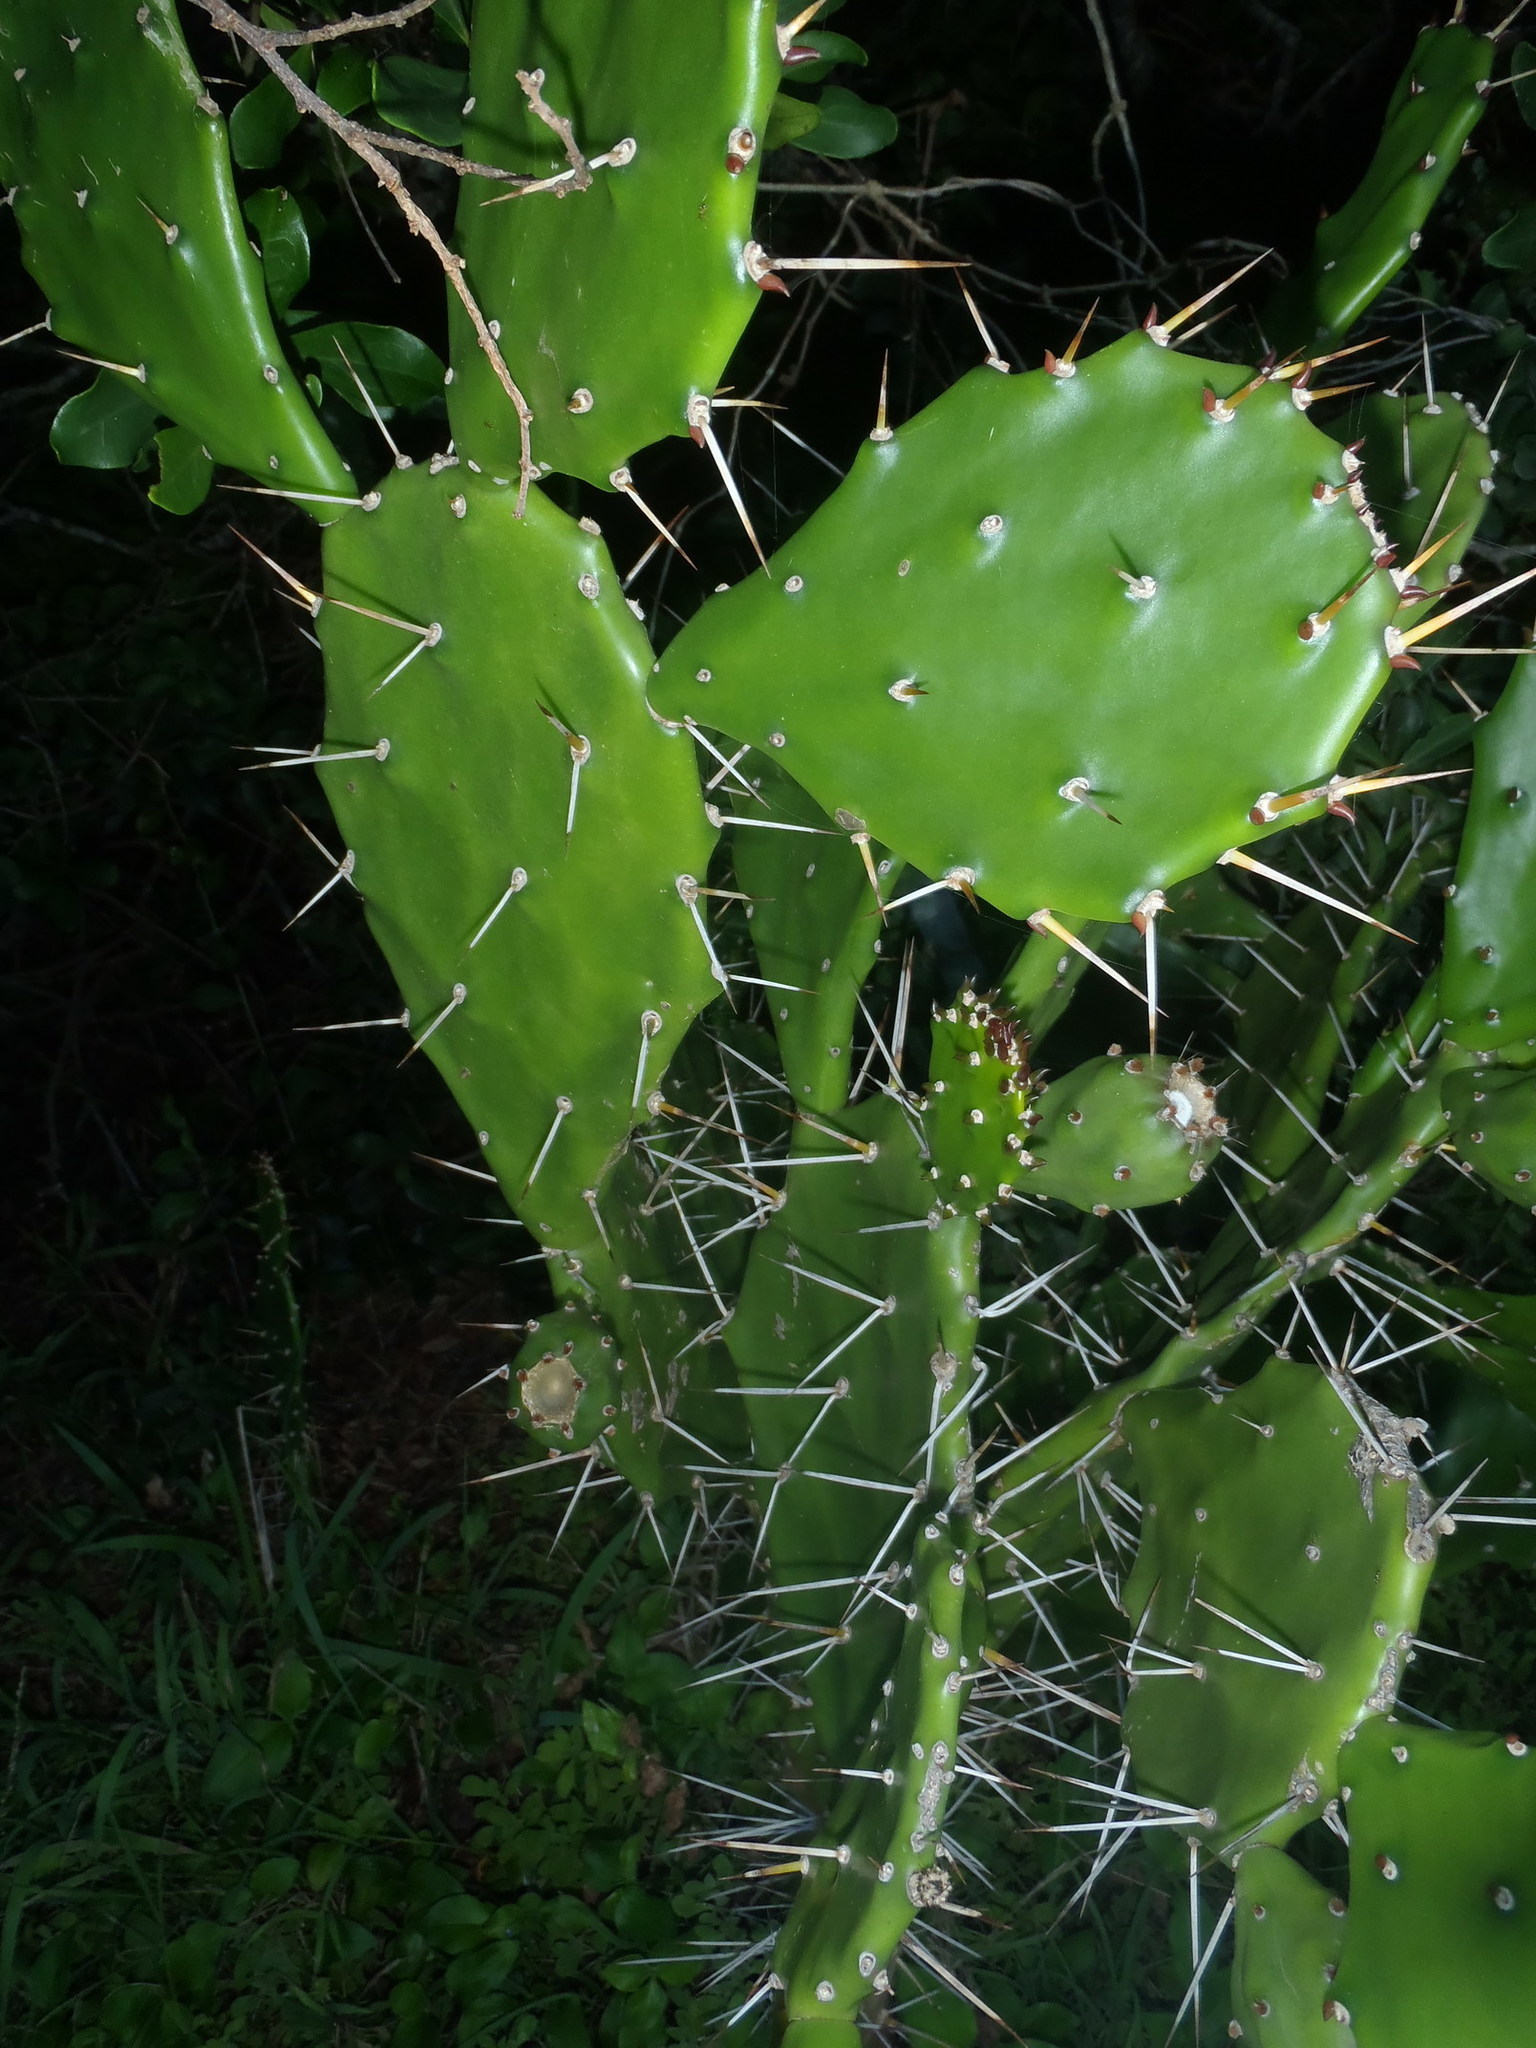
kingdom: Plantae
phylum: Tracheophyta
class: Magnoliopsida
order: Caryophyllales
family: Cactaceae
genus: Opuntia
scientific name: Opuntia monacantha
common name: Common pricklypear
